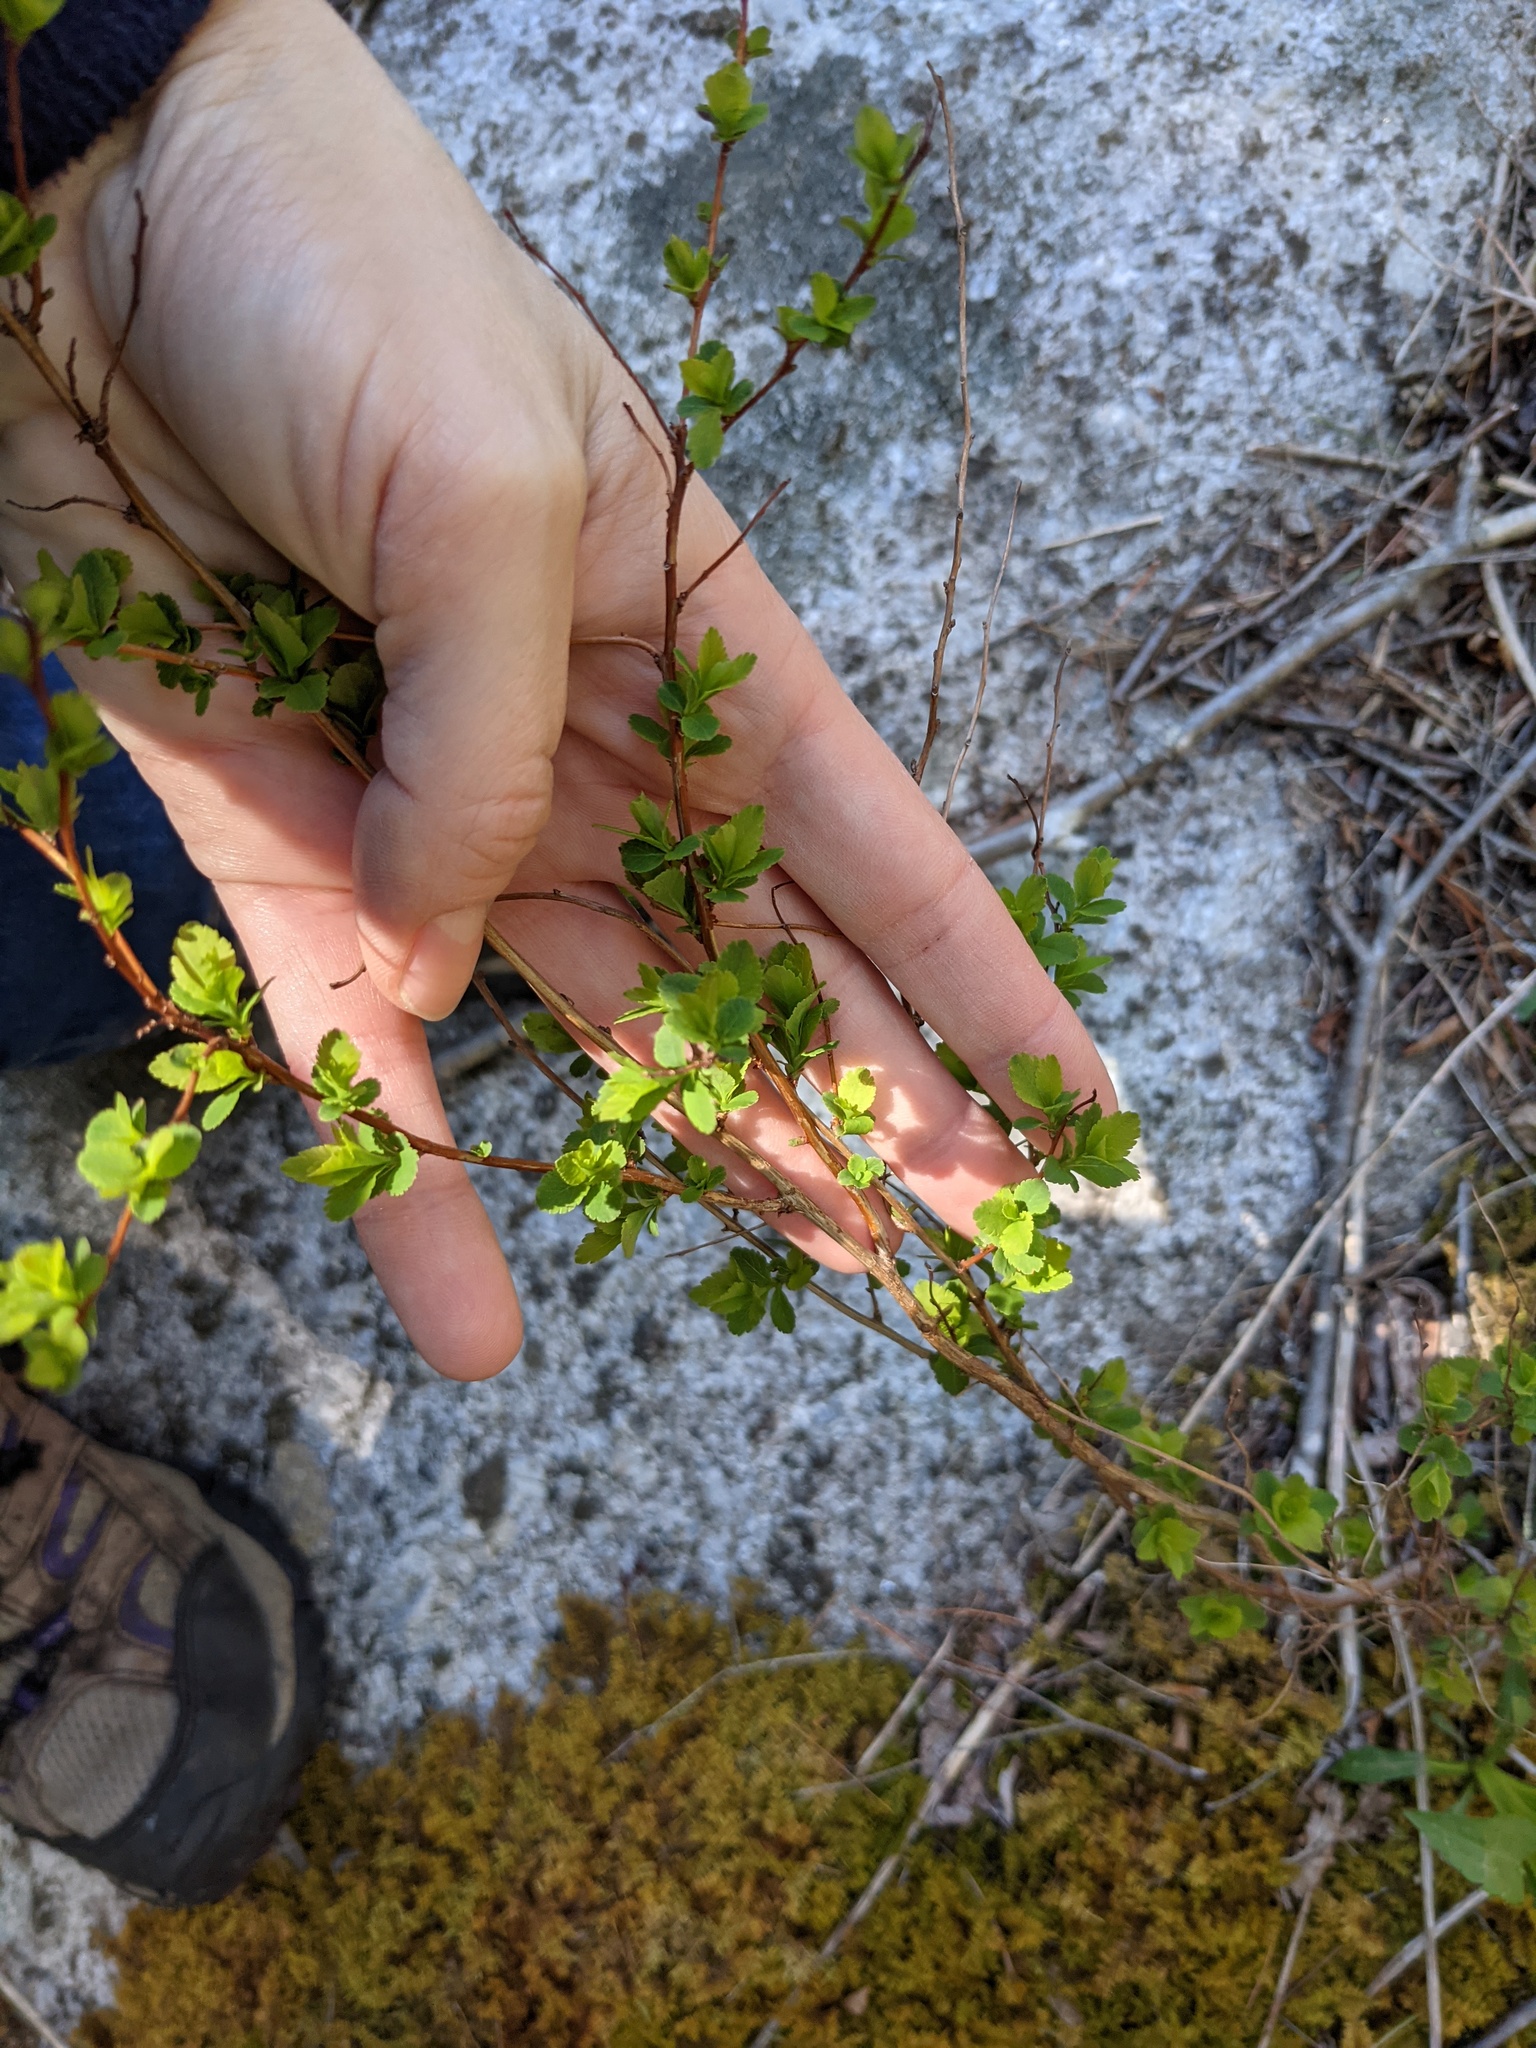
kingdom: Plantae
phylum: Tracheophyta
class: Magnoliopsida
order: Rosales
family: Rosaceae
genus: Spiraea
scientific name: Spiraea alba
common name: Pale bridewort
